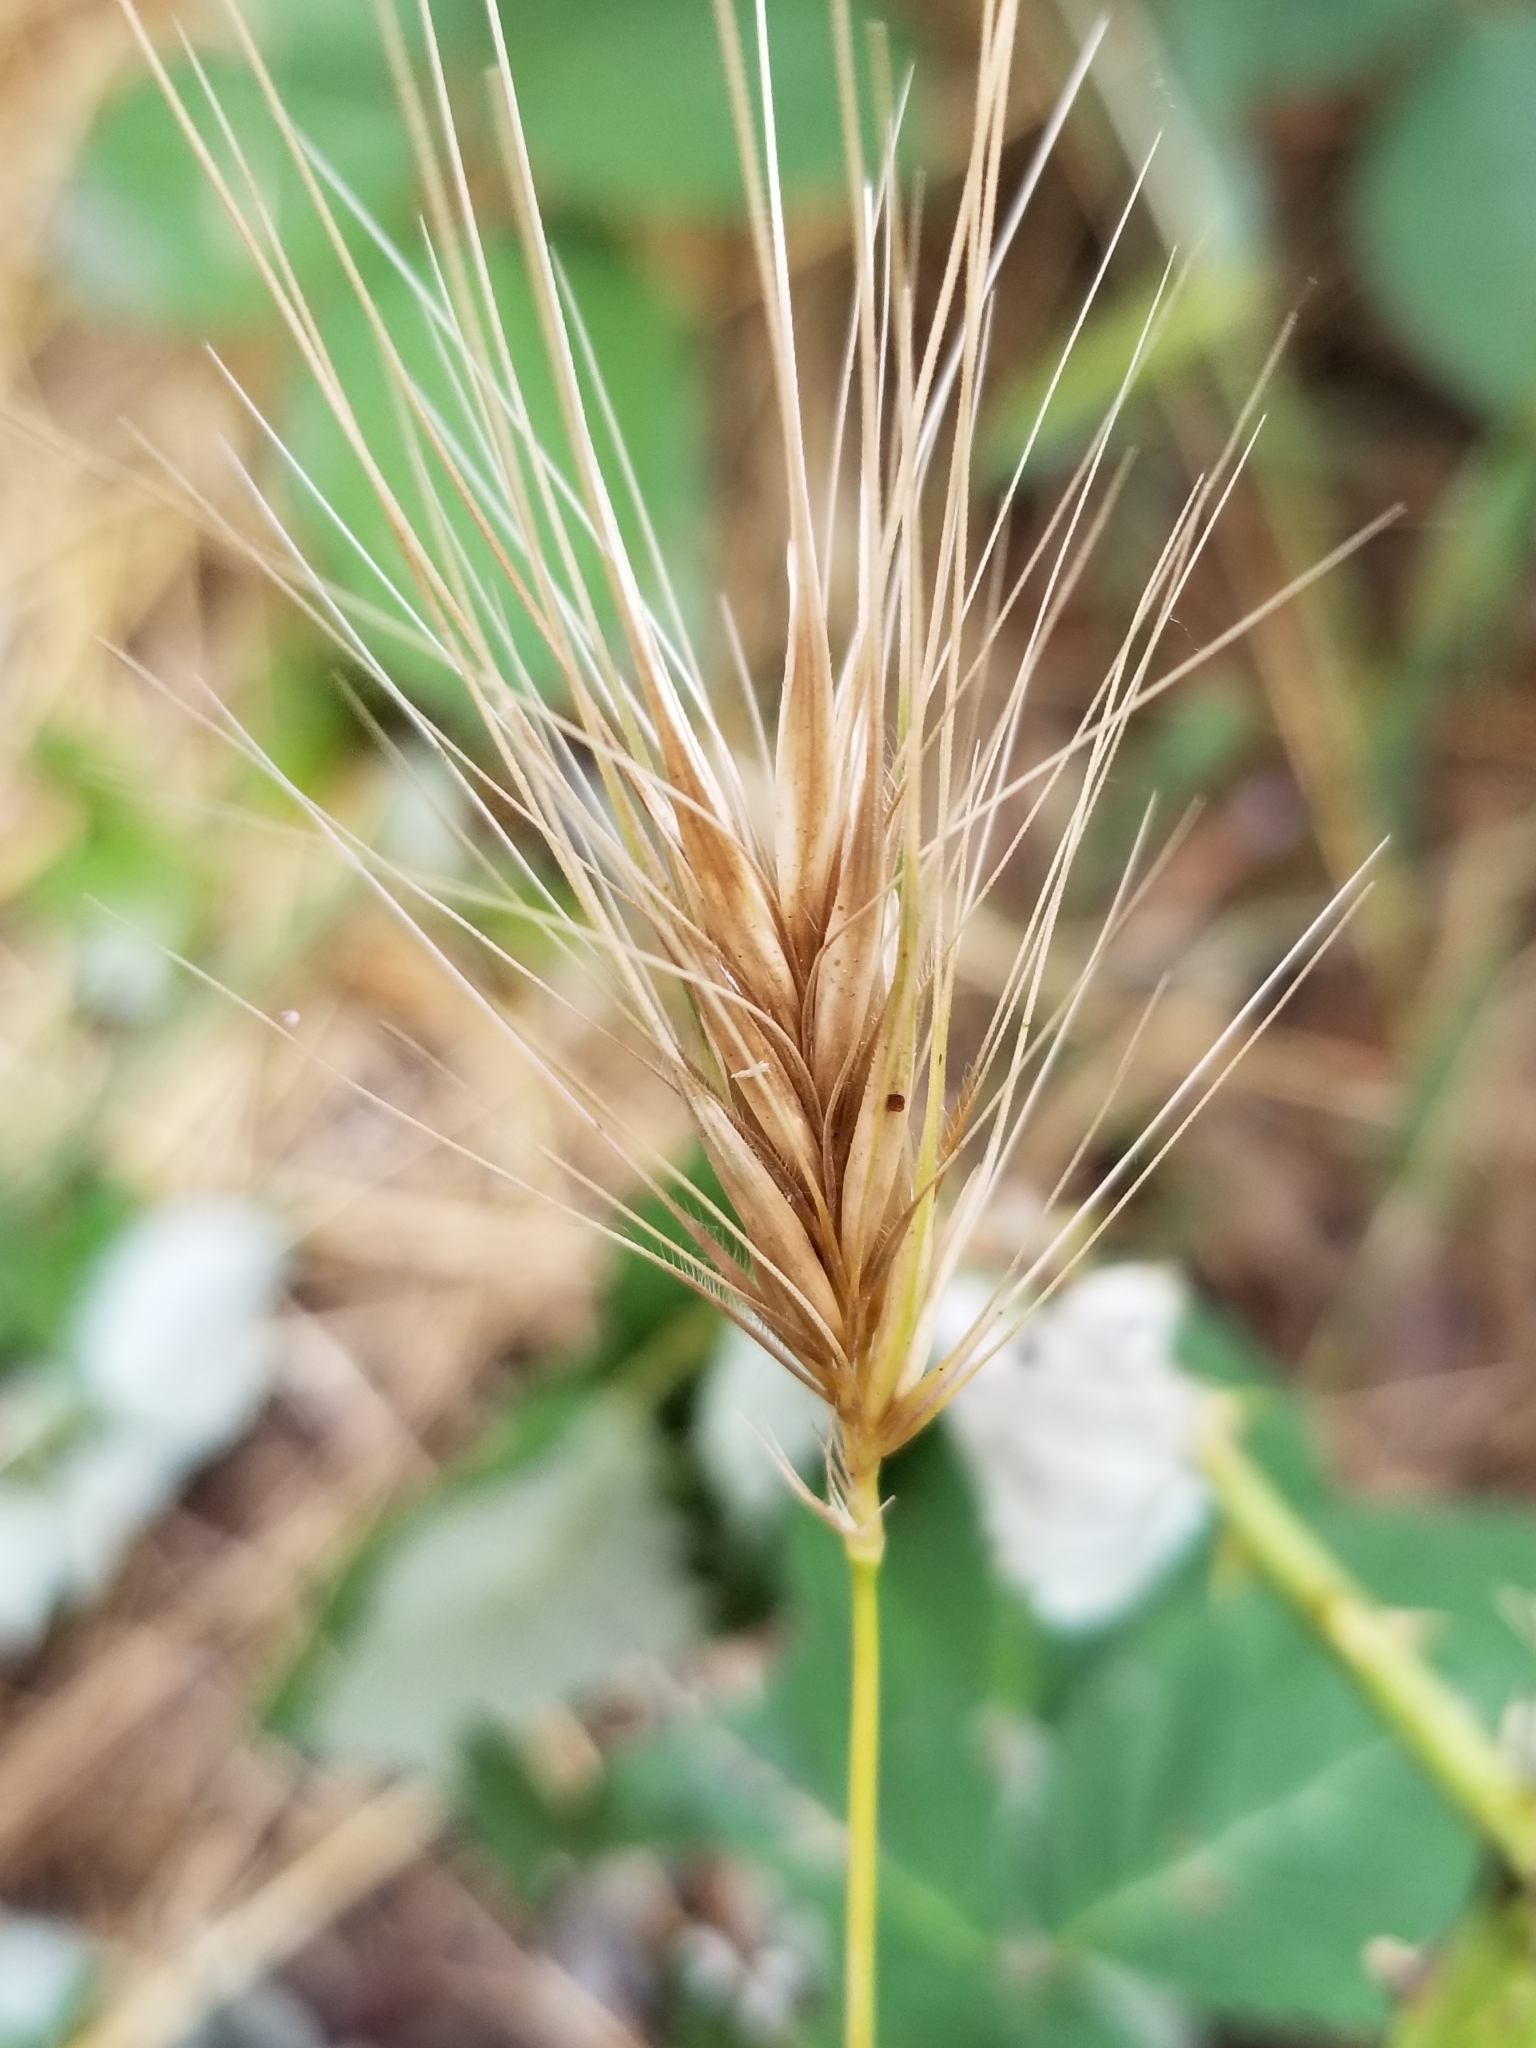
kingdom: Plantae
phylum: Tracheophyta
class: Liliopsida
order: Poales
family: Poaceae
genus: Hordeum
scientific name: Hordeum murinum
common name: Wall barley
